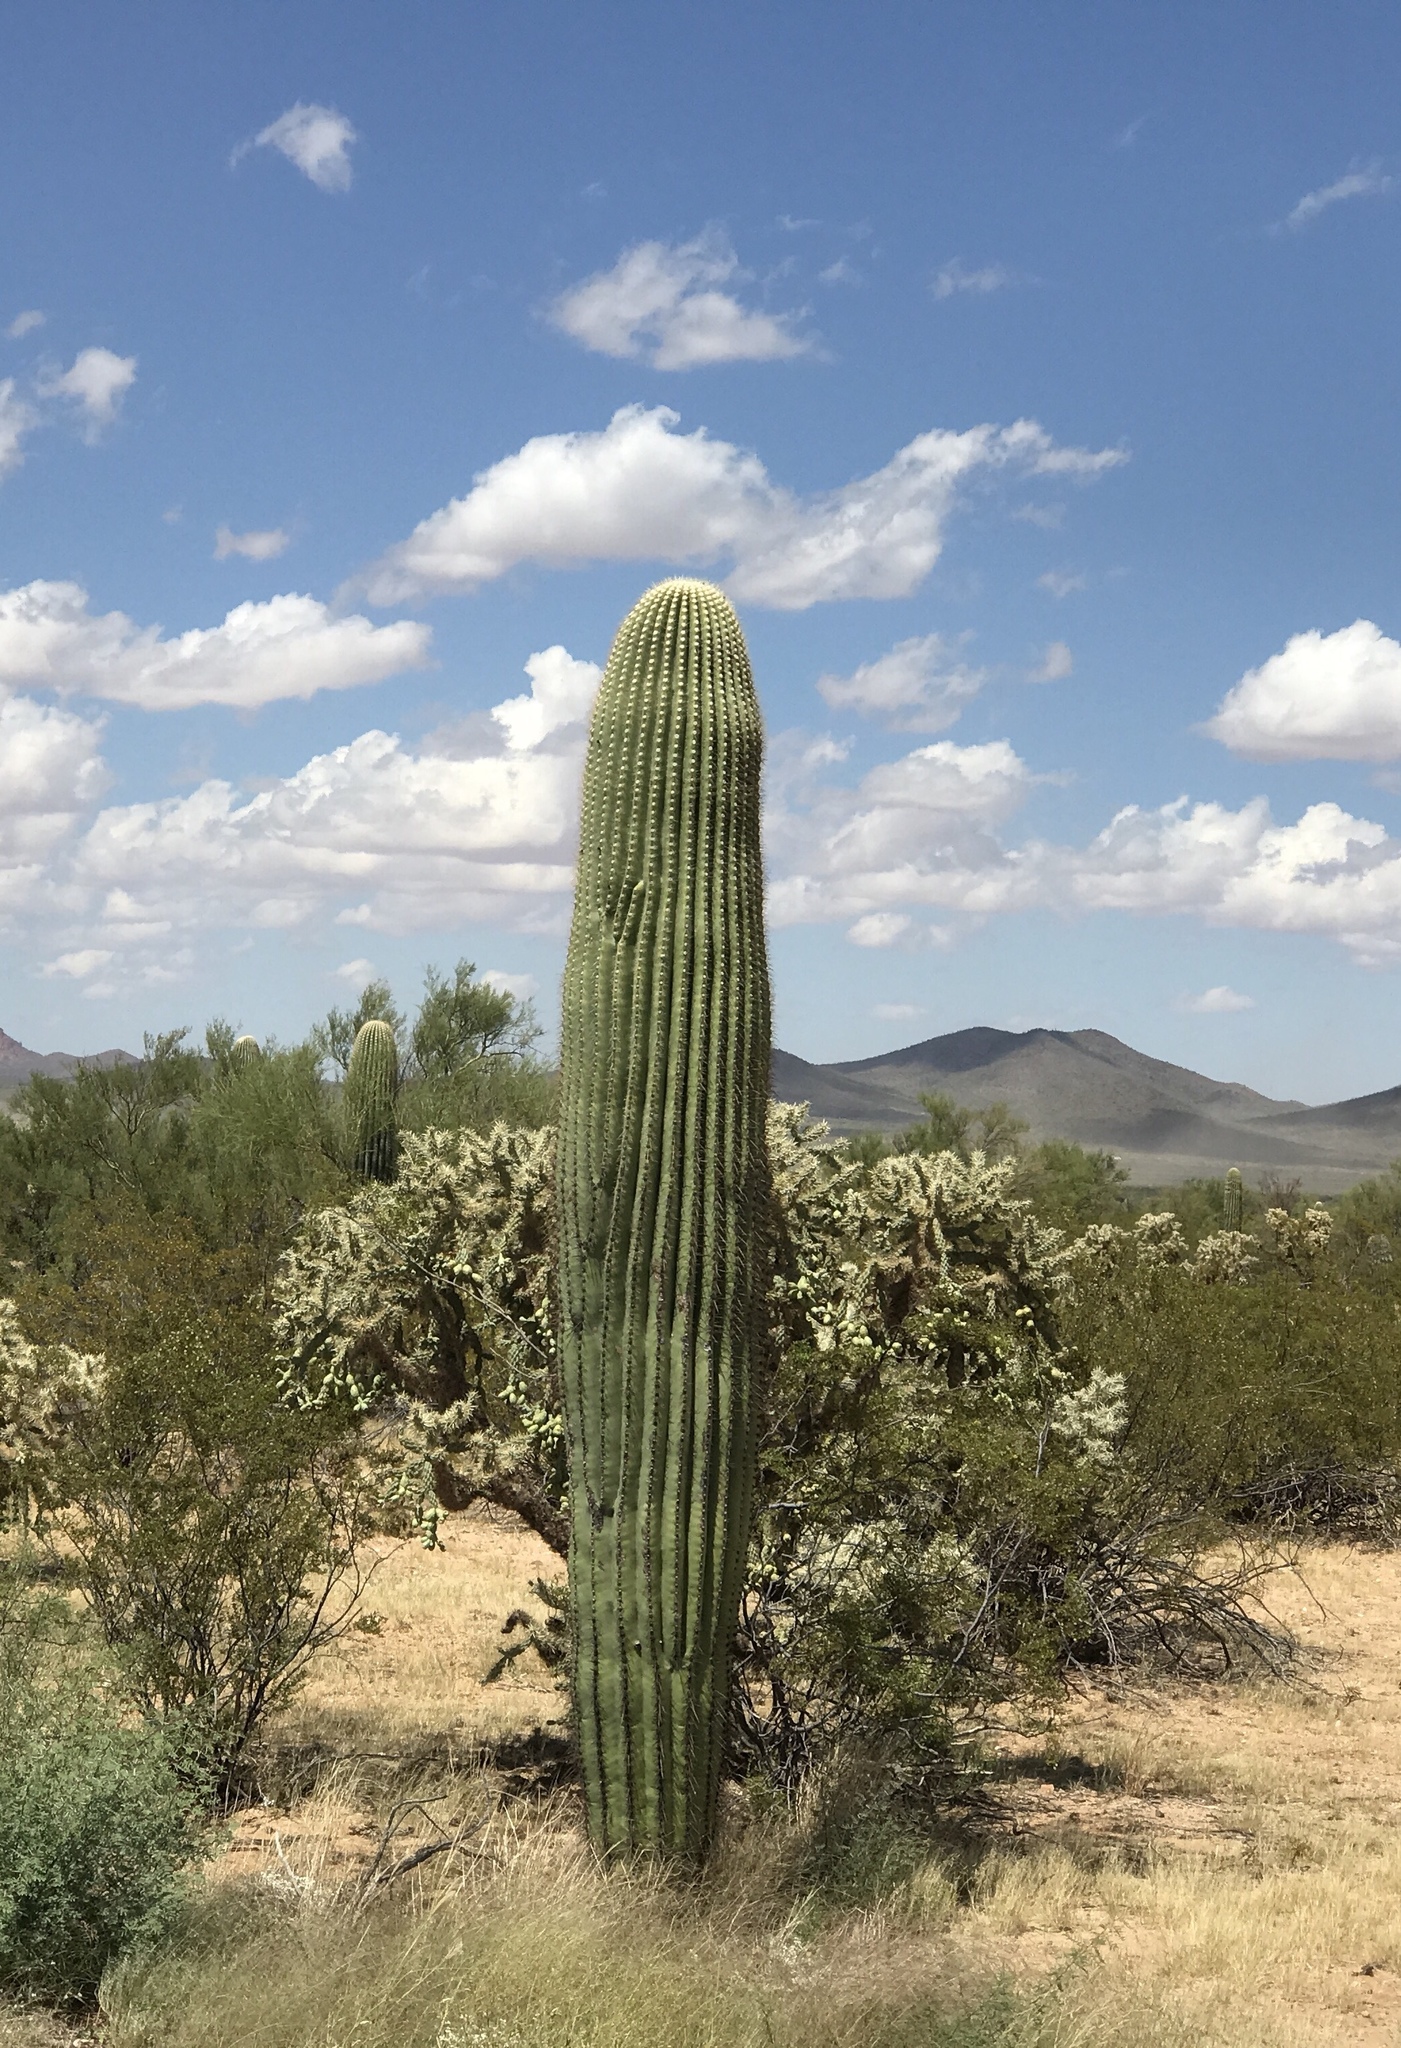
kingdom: Plantae
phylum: Tracheophyta
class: Magnoliopsida
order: Caryophyllales
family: Cactaceae
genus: Carnegiea
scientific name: Carnegiea gigantea
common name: Saguaro
